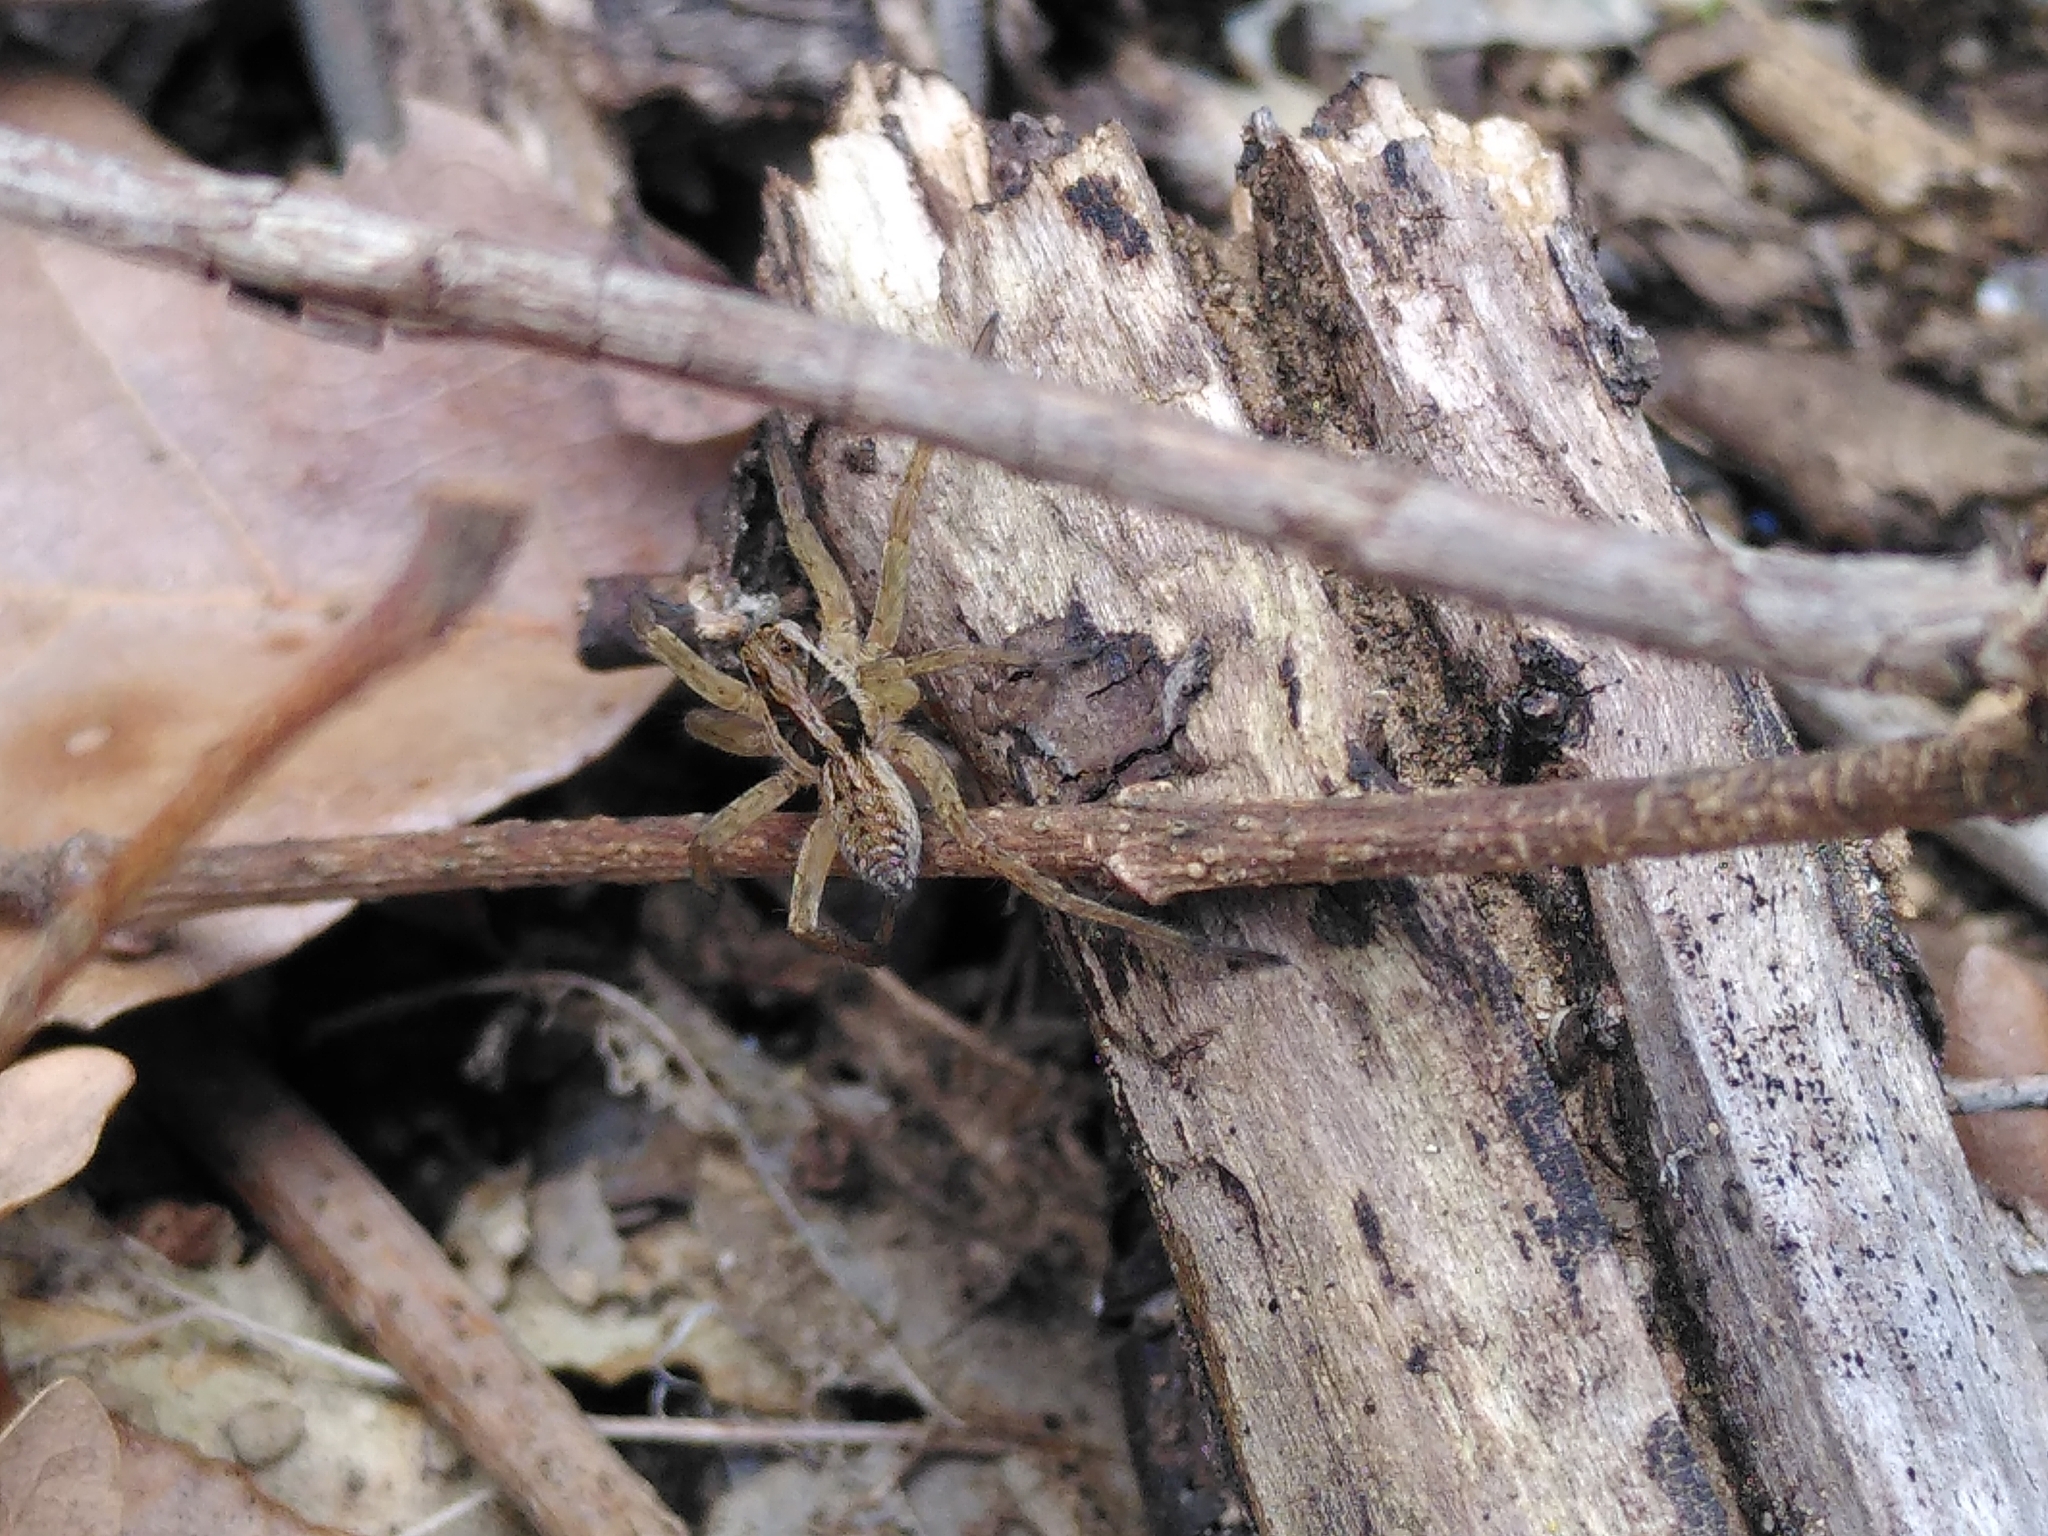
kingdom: Animalia
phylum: Arthropoda
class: Arachnida
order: Araneae
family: Lycosidae
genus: Hogna
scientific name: Hogna radiata
